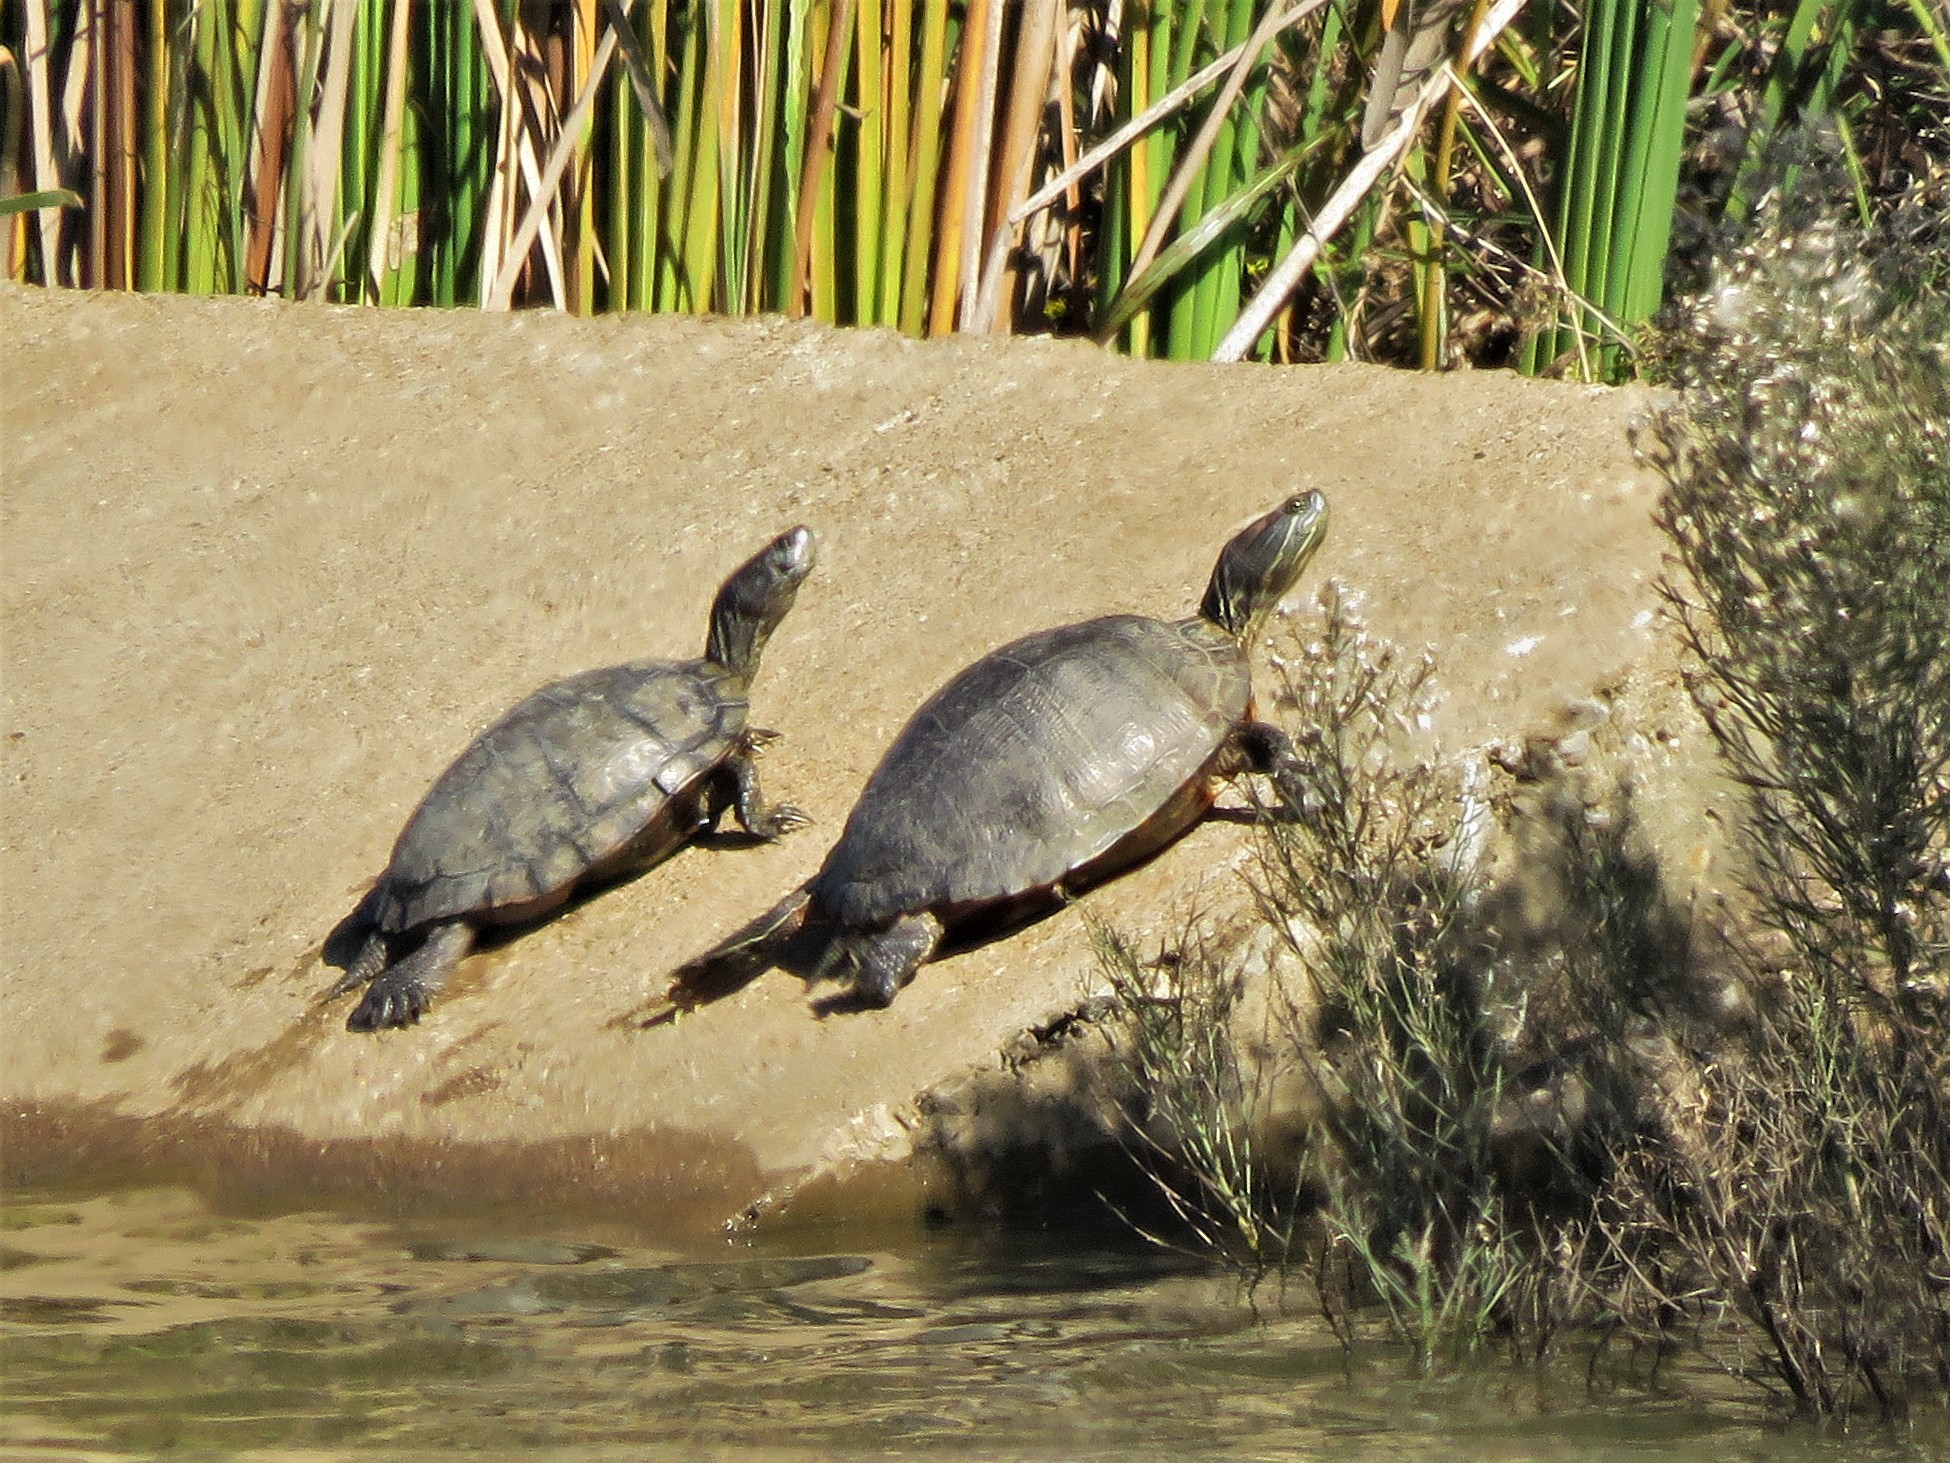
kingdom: Animalia
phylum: Chordata
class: Testudines
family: Emydidae
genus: Trachemys
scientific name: Trachemys scripta
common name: Slider
